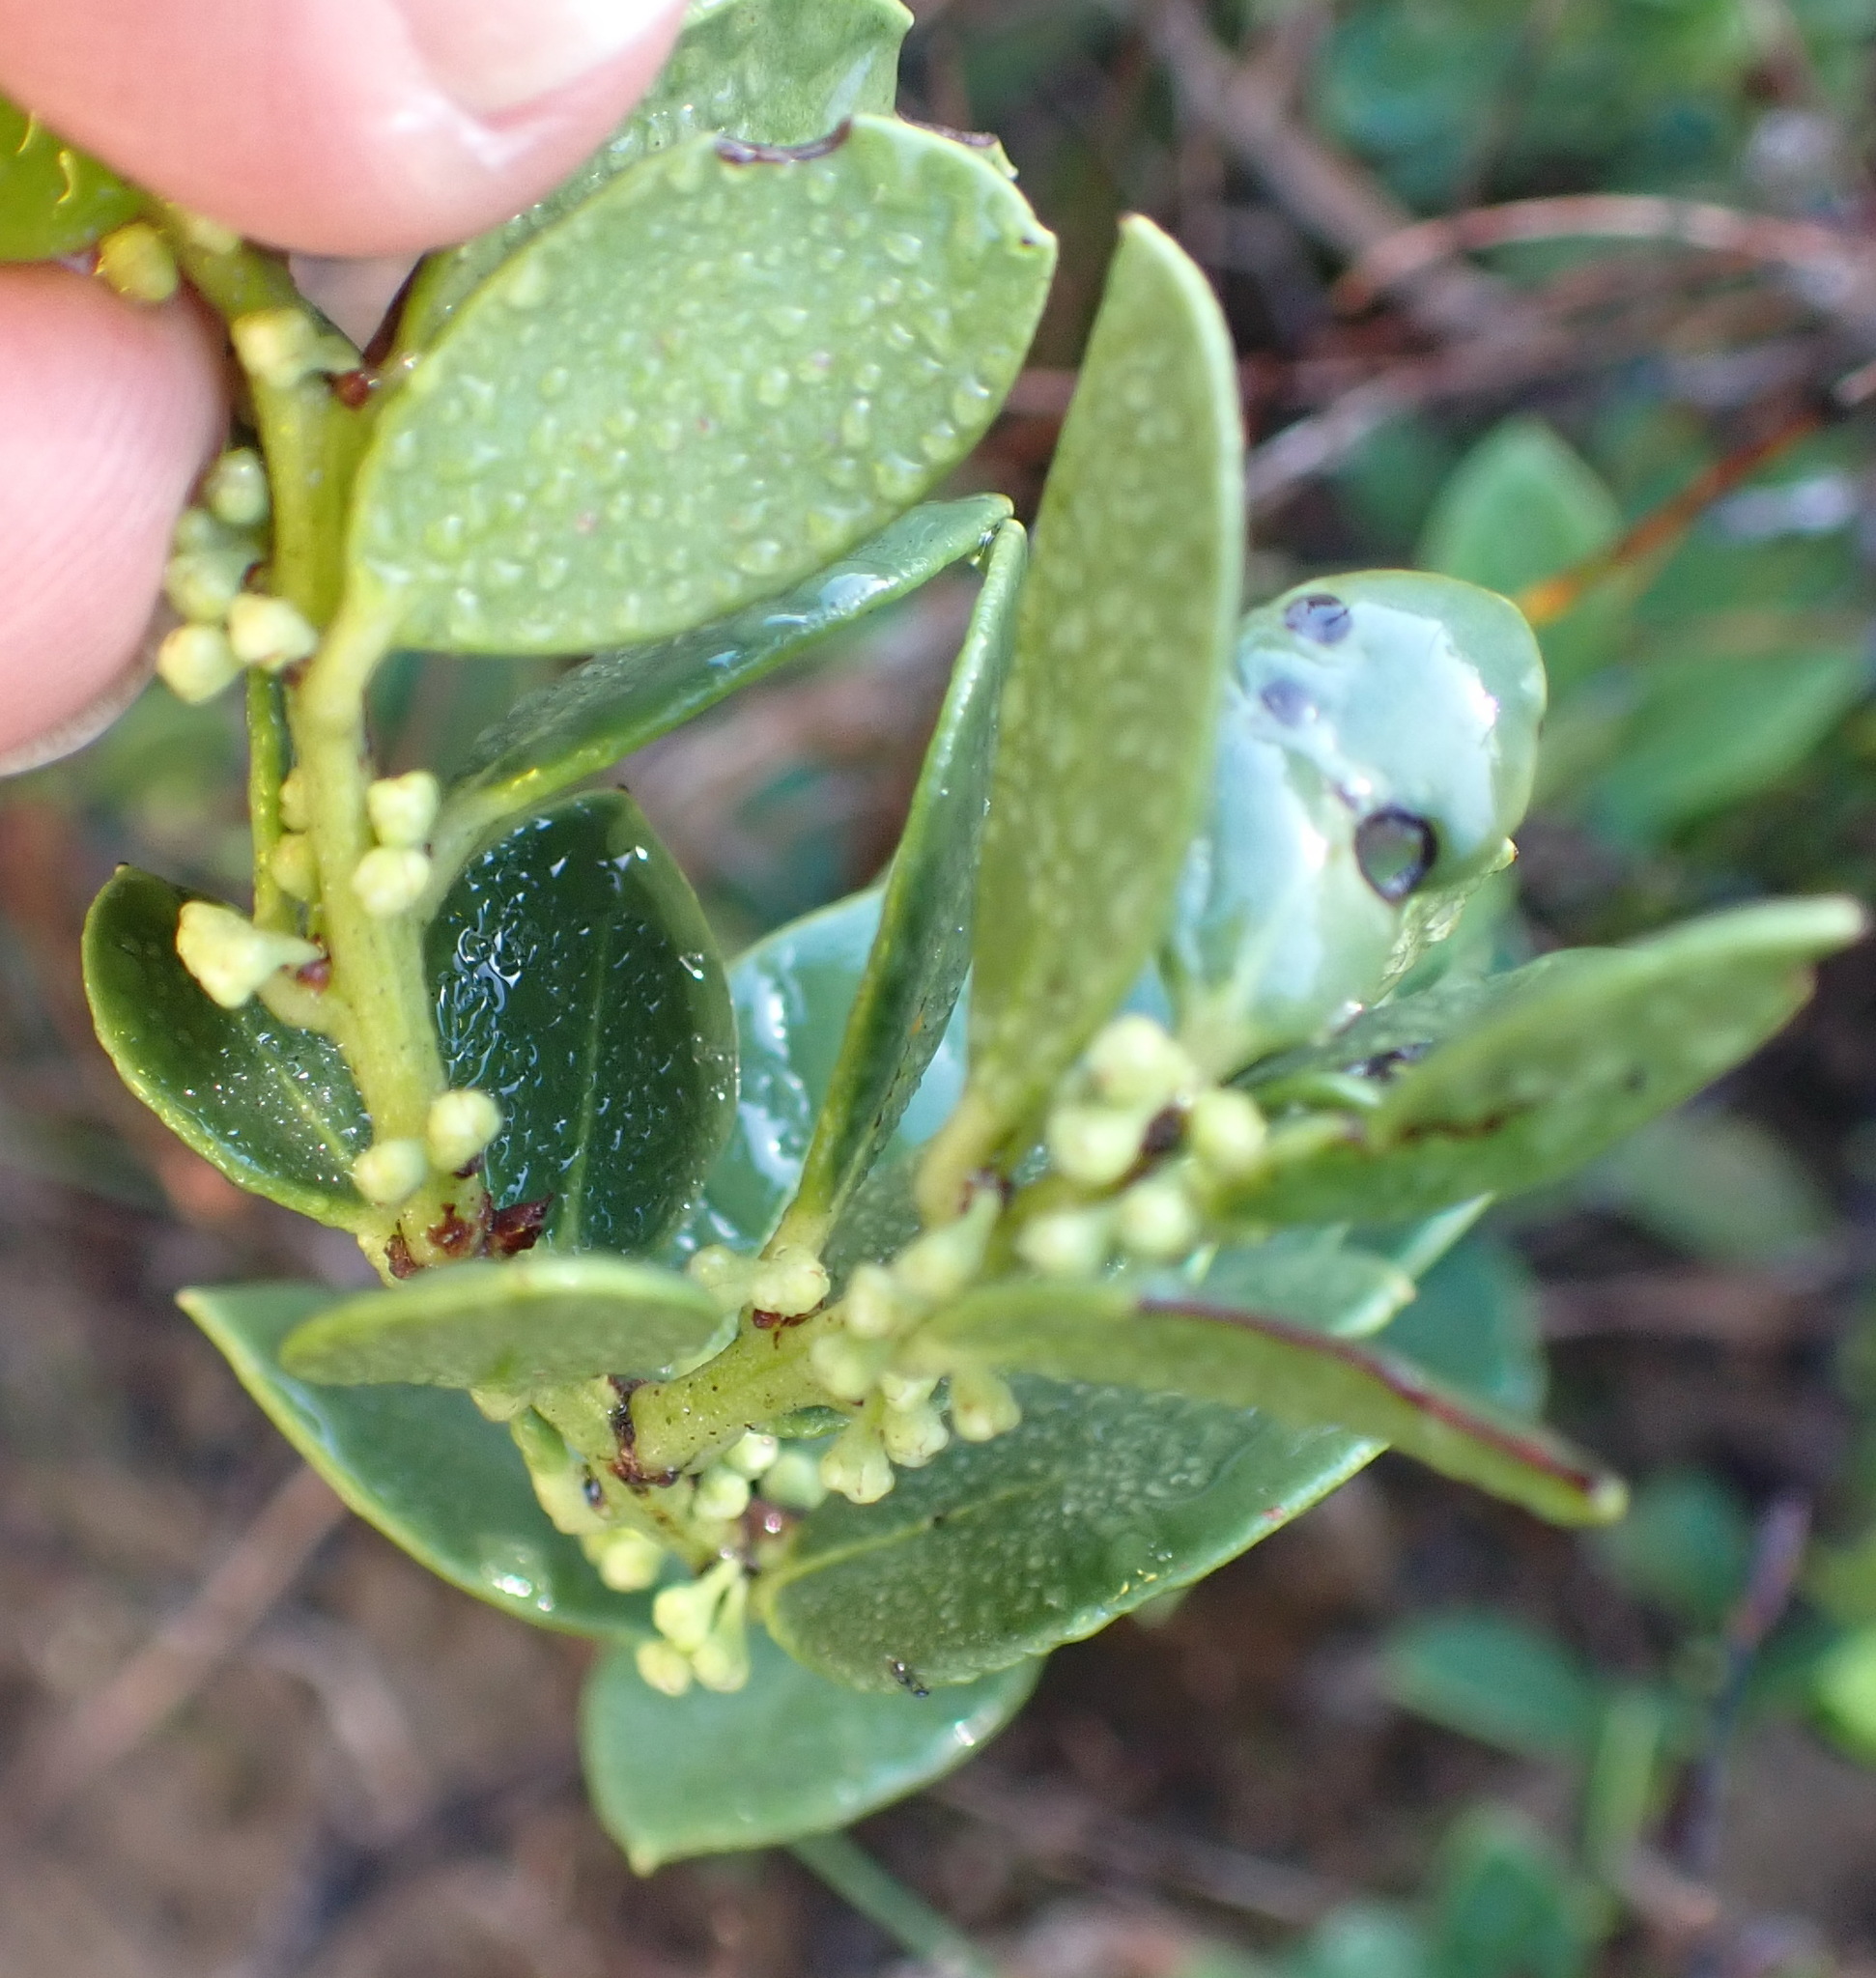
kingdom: Plantae
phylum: Tracheophyta
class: Magnoliopsida
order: Celastrales
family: Celastraceae
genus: Robsonodendron
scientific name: Robsonodendron maritimum
